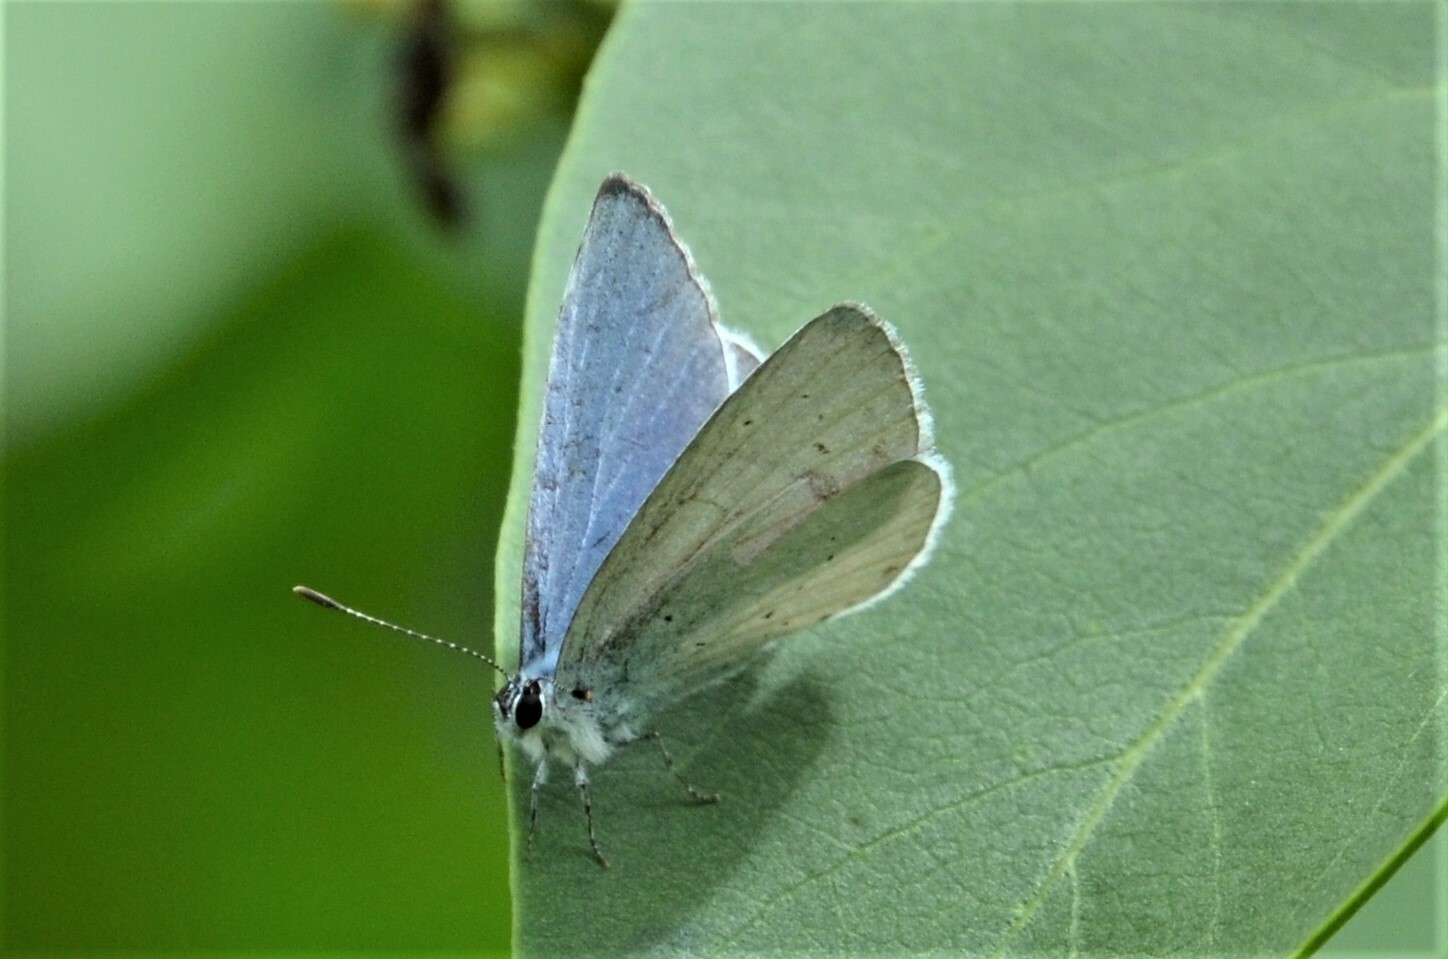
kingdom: Animalia
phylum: Arthropoda
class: Insecta
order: Lepidoptera
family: Lycaenidae
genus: Celastrina
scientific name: Celastrina argiolus
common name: Holly blue
